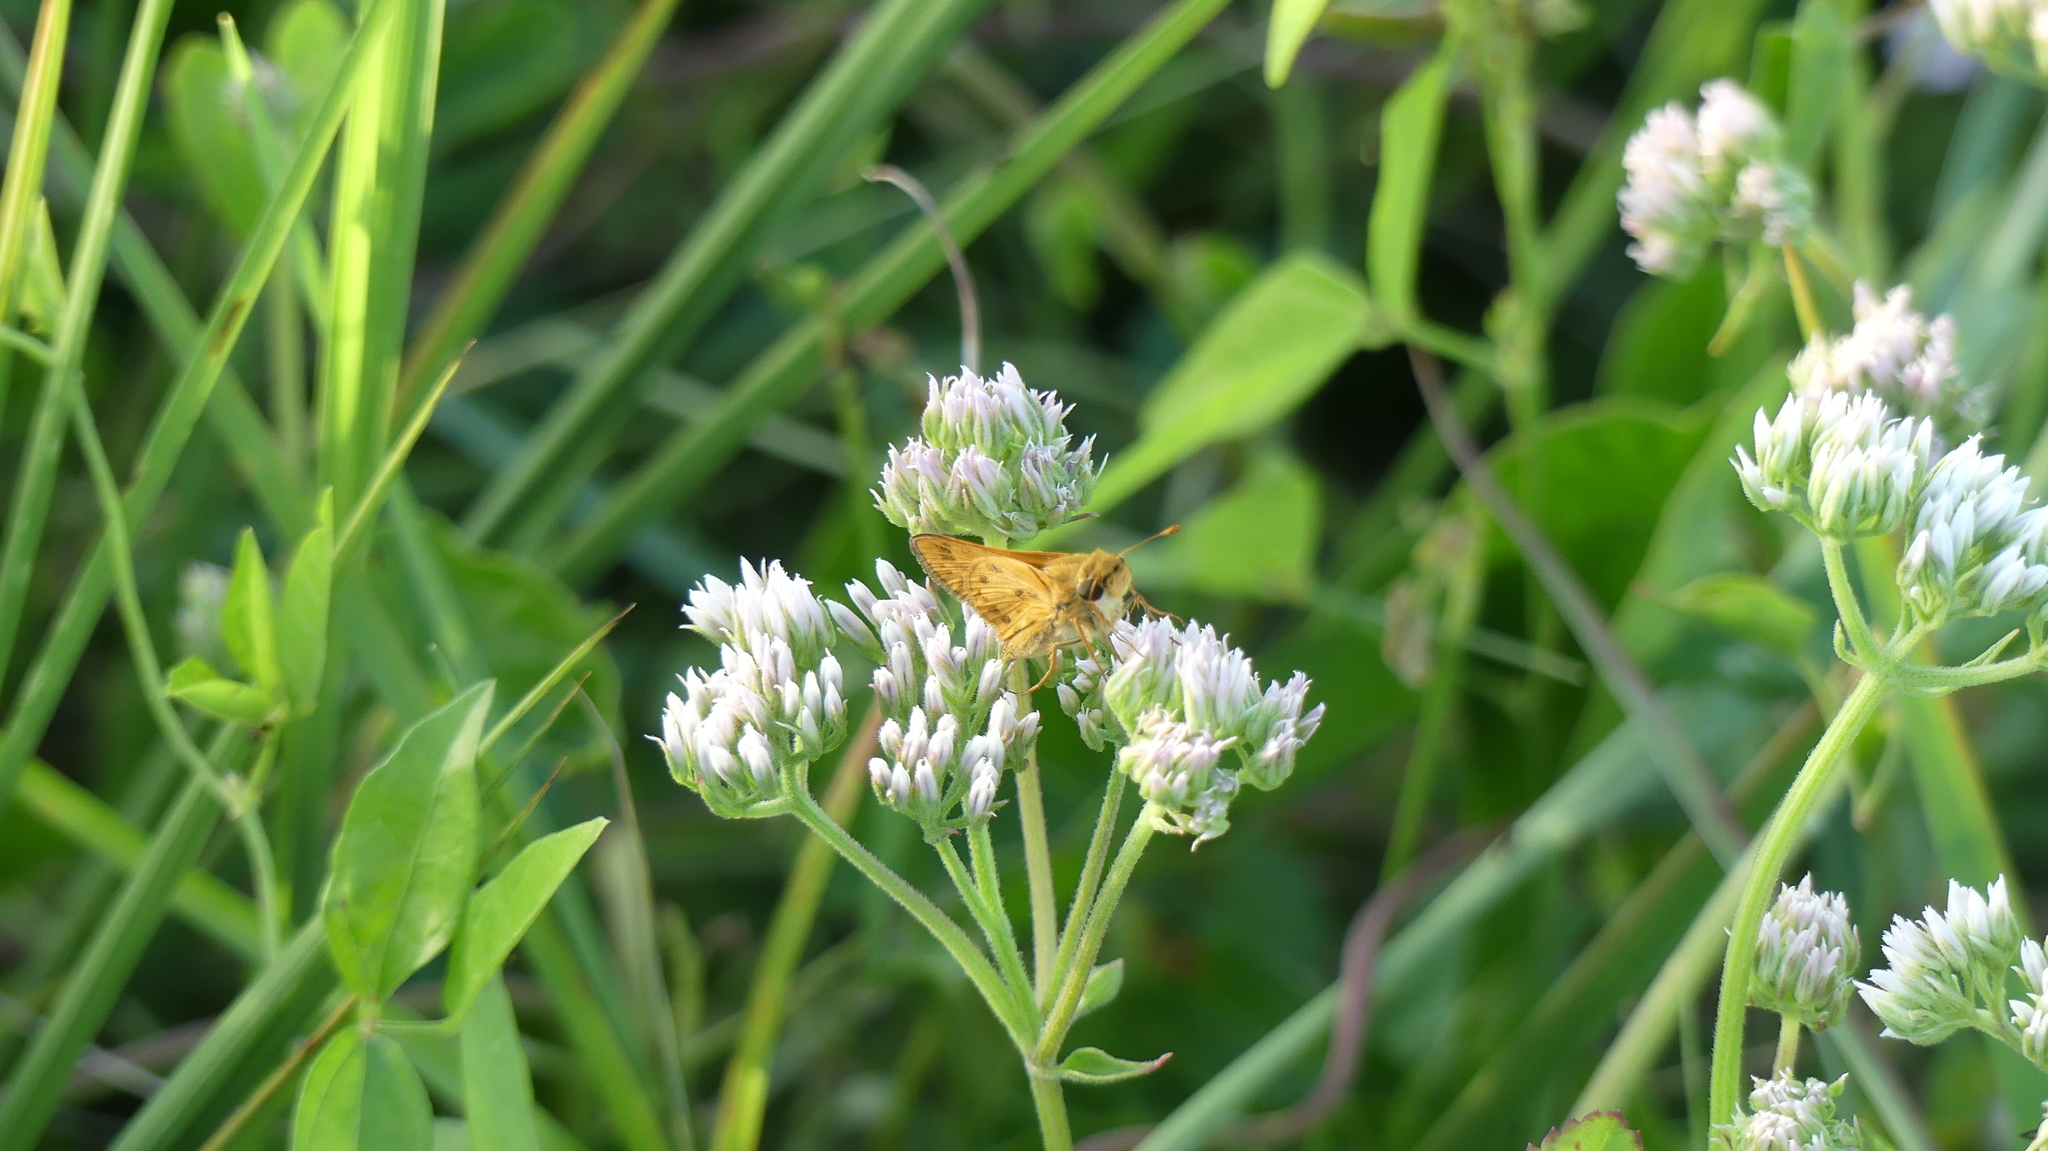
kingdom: Animalia
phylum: Arthropoda
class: Insecta
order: Lepidoptera
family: Hesperiidae
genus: Hylephila
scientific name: Hylephila phyleus
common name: Fiery skipper
